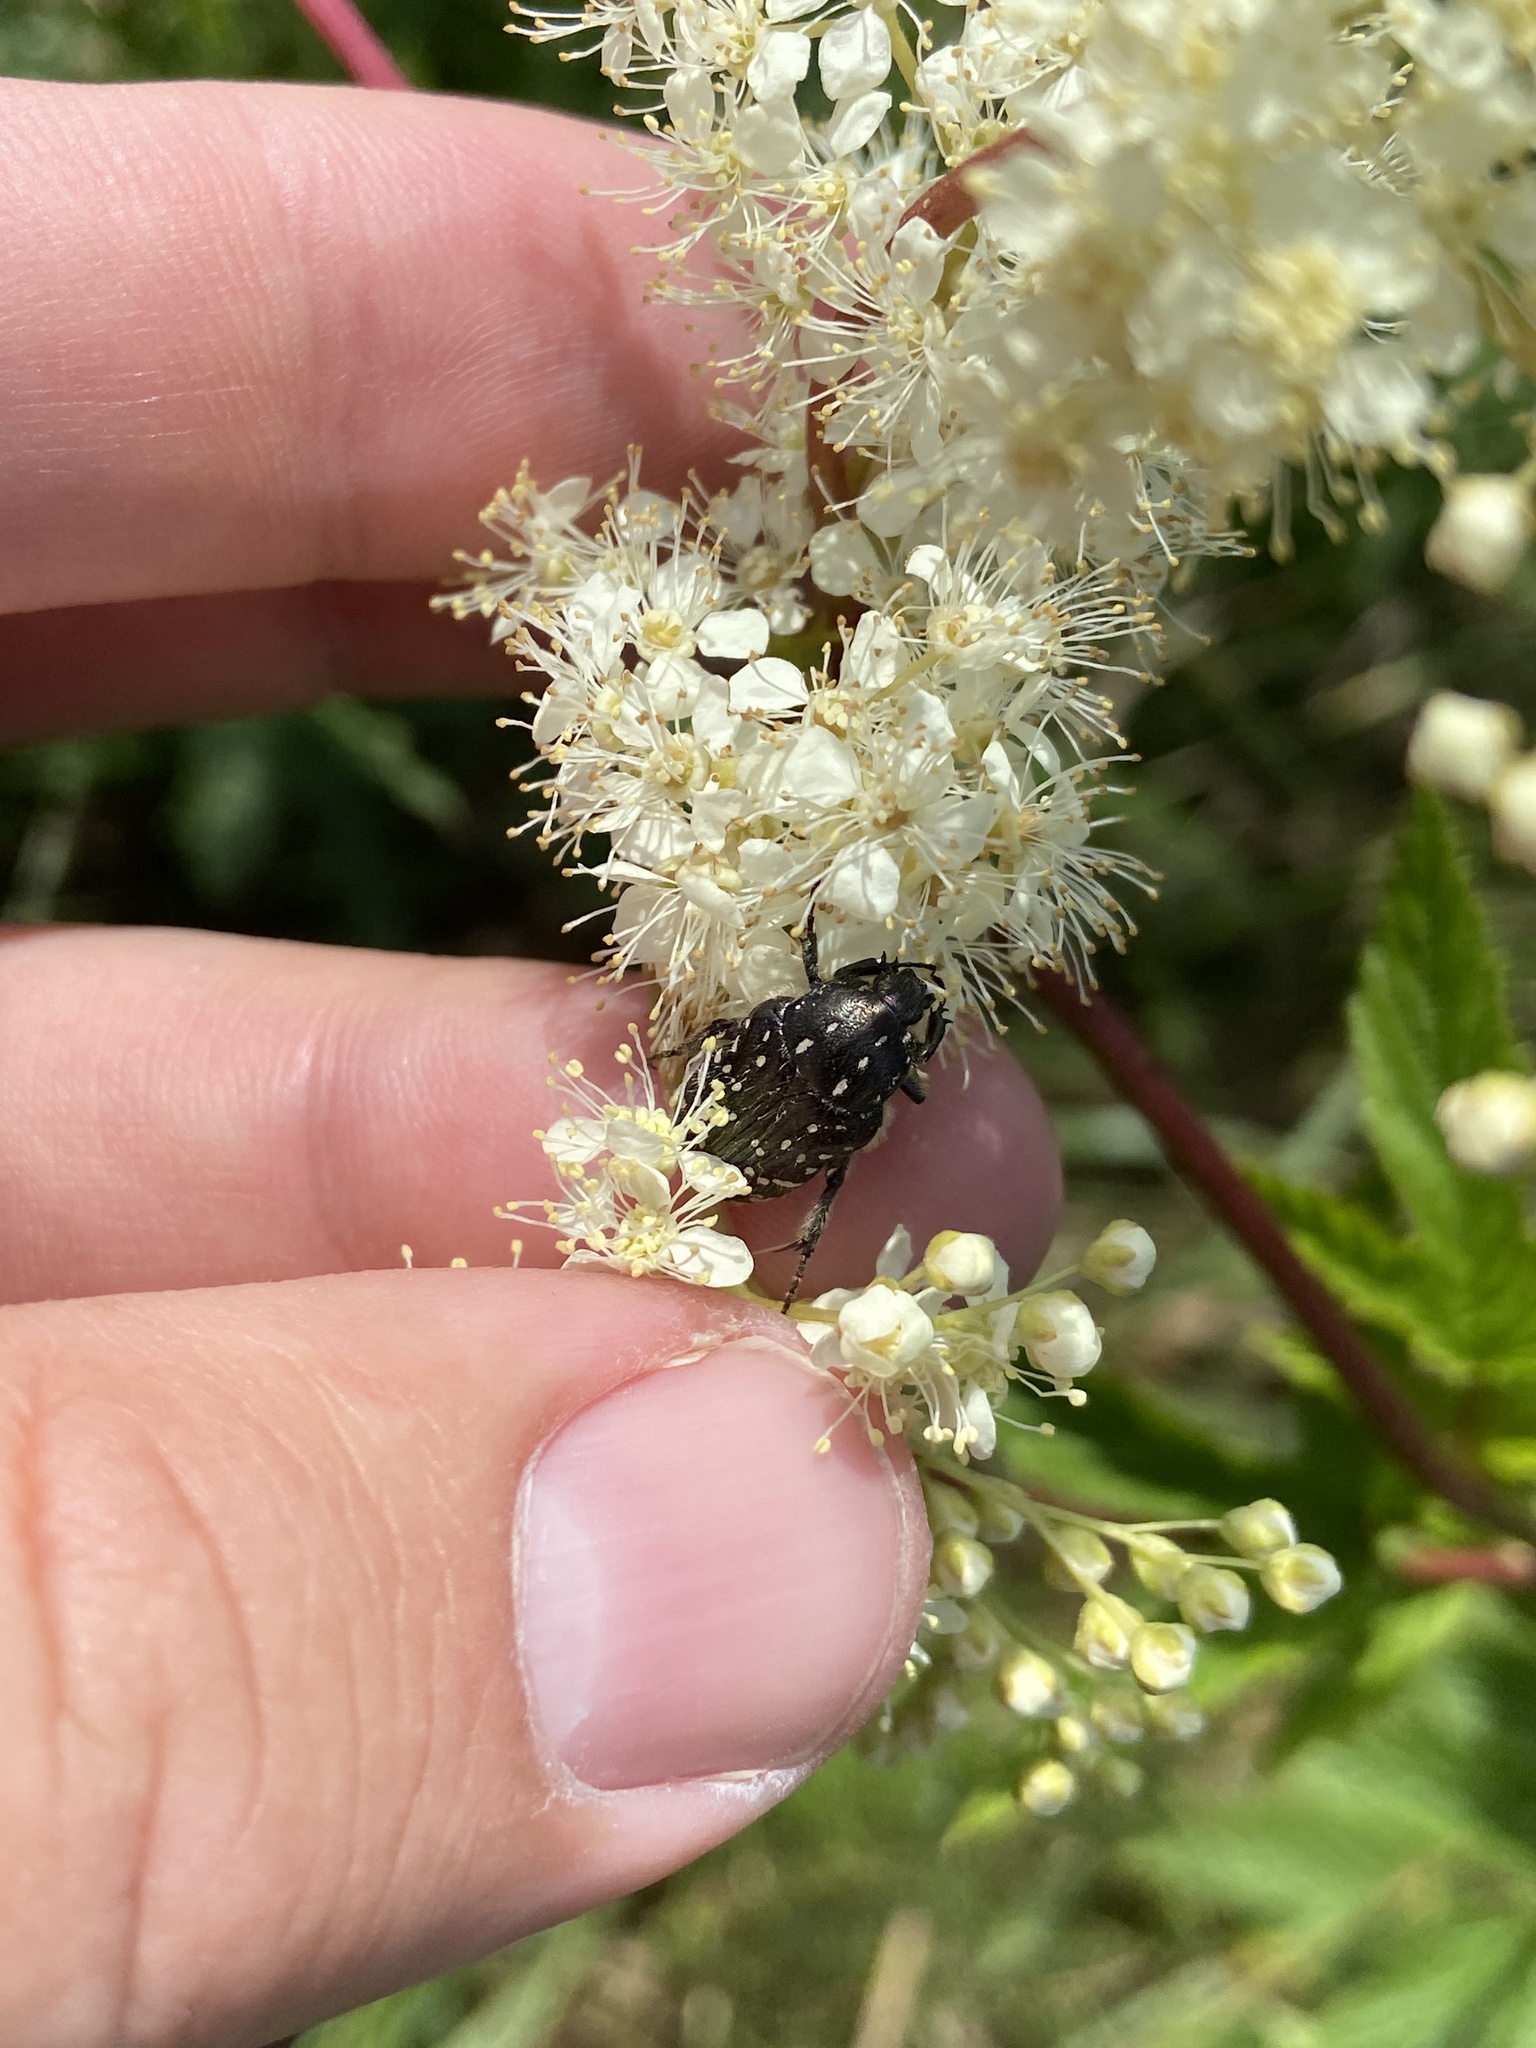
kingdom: Animalia
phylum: Arthropoda
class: Insecta
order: Coleoptera
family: Scarabaeidae
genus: Oxythyrea
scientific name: Oxythyrea funesta
